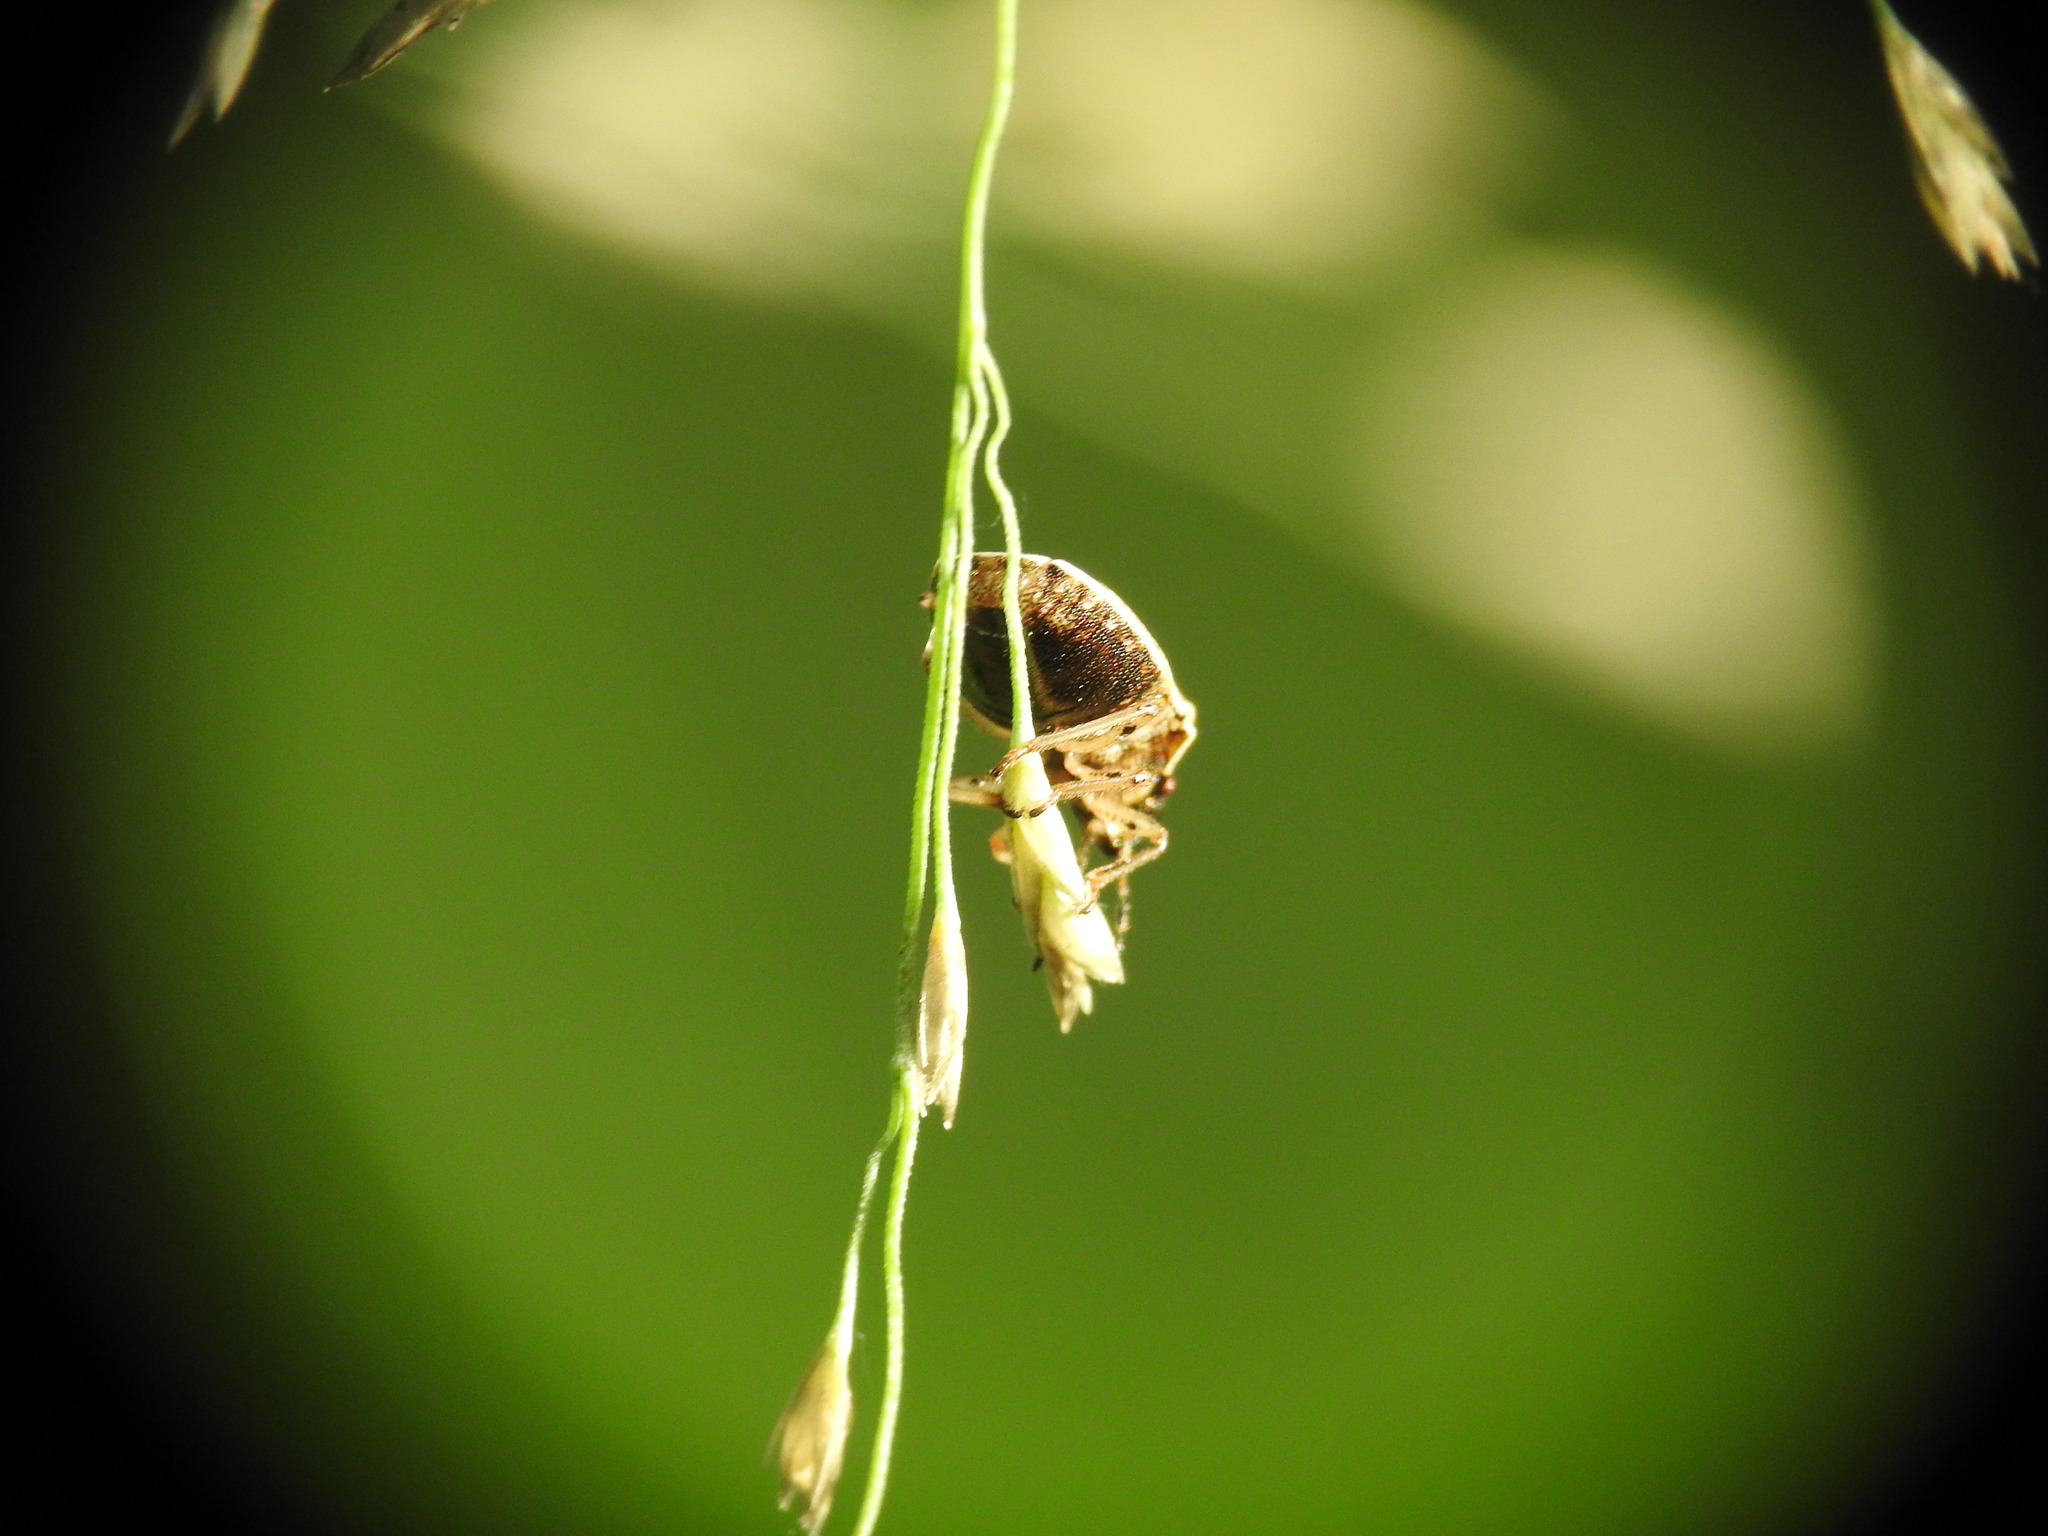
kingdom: Animalia
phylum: Arthropoda
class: Insecta
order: Hemiptera
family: Pentatomidae
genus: Neottiglossa
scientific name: Neottiglossa pusilla
